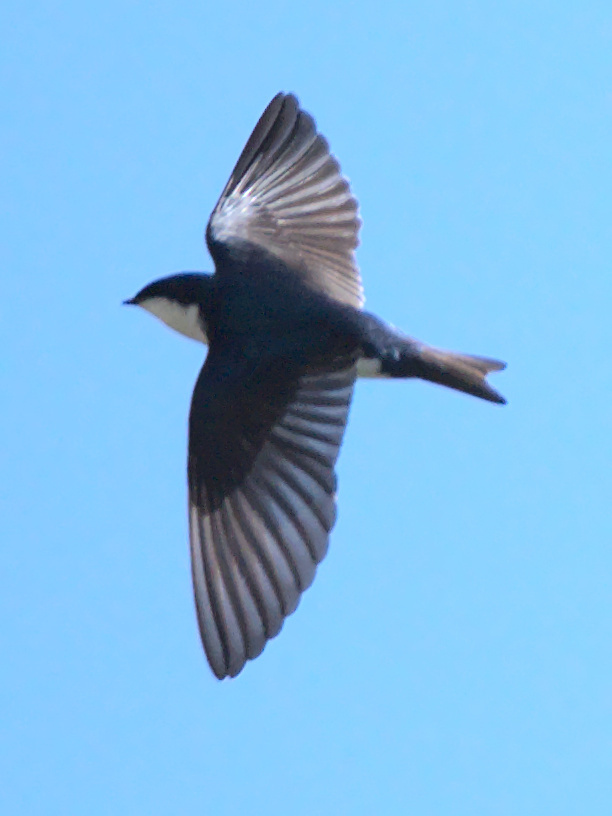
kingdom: Animalia
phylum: Chordata
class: Aves
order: Passeriformes
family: Hirundinidae
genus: Tachycineta
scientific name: Tachycineta bicolor
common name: Tree swallow
